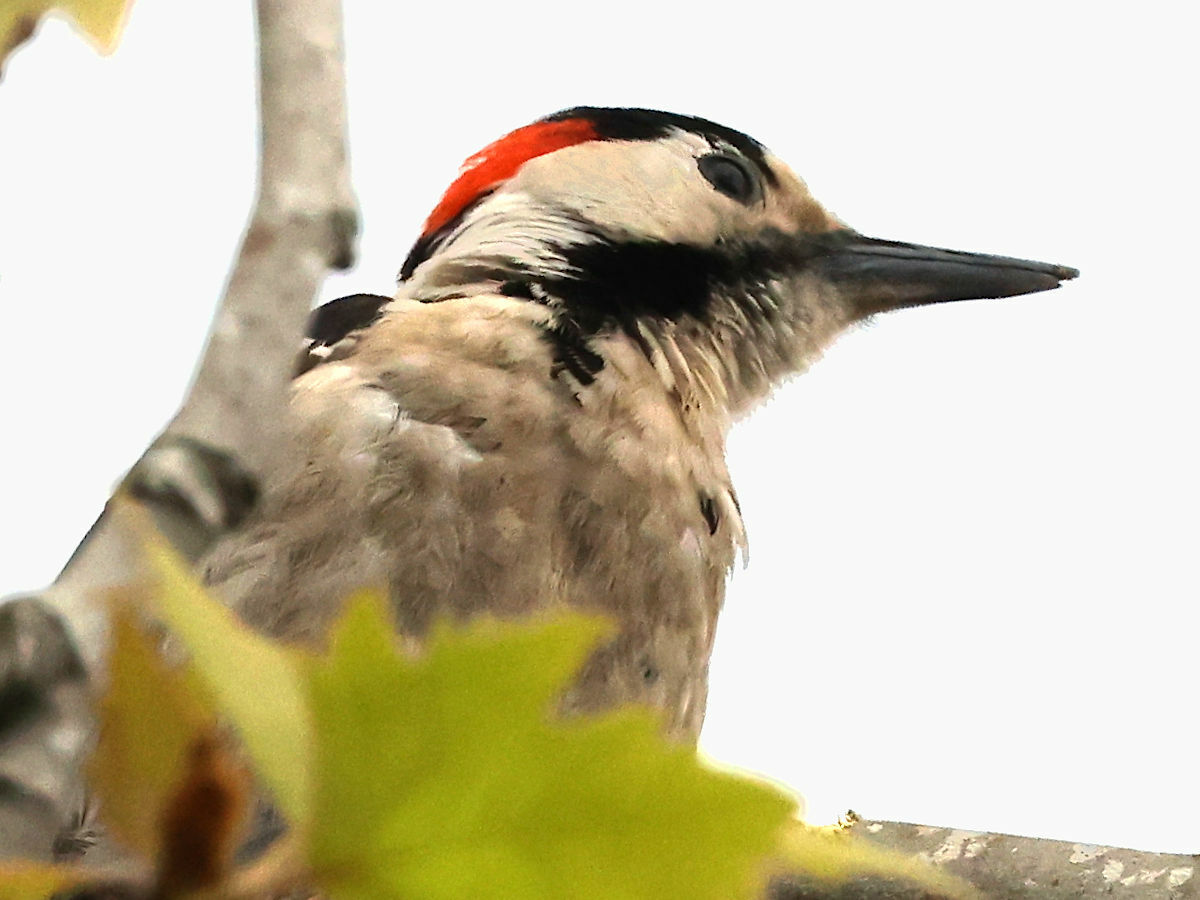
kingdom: Animalia
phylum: Chordata
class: Aves
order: Piciformes
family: Picidae
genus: Dendrocopos
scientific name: Dendrocopos syriacus
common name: Syrian woodpecker
